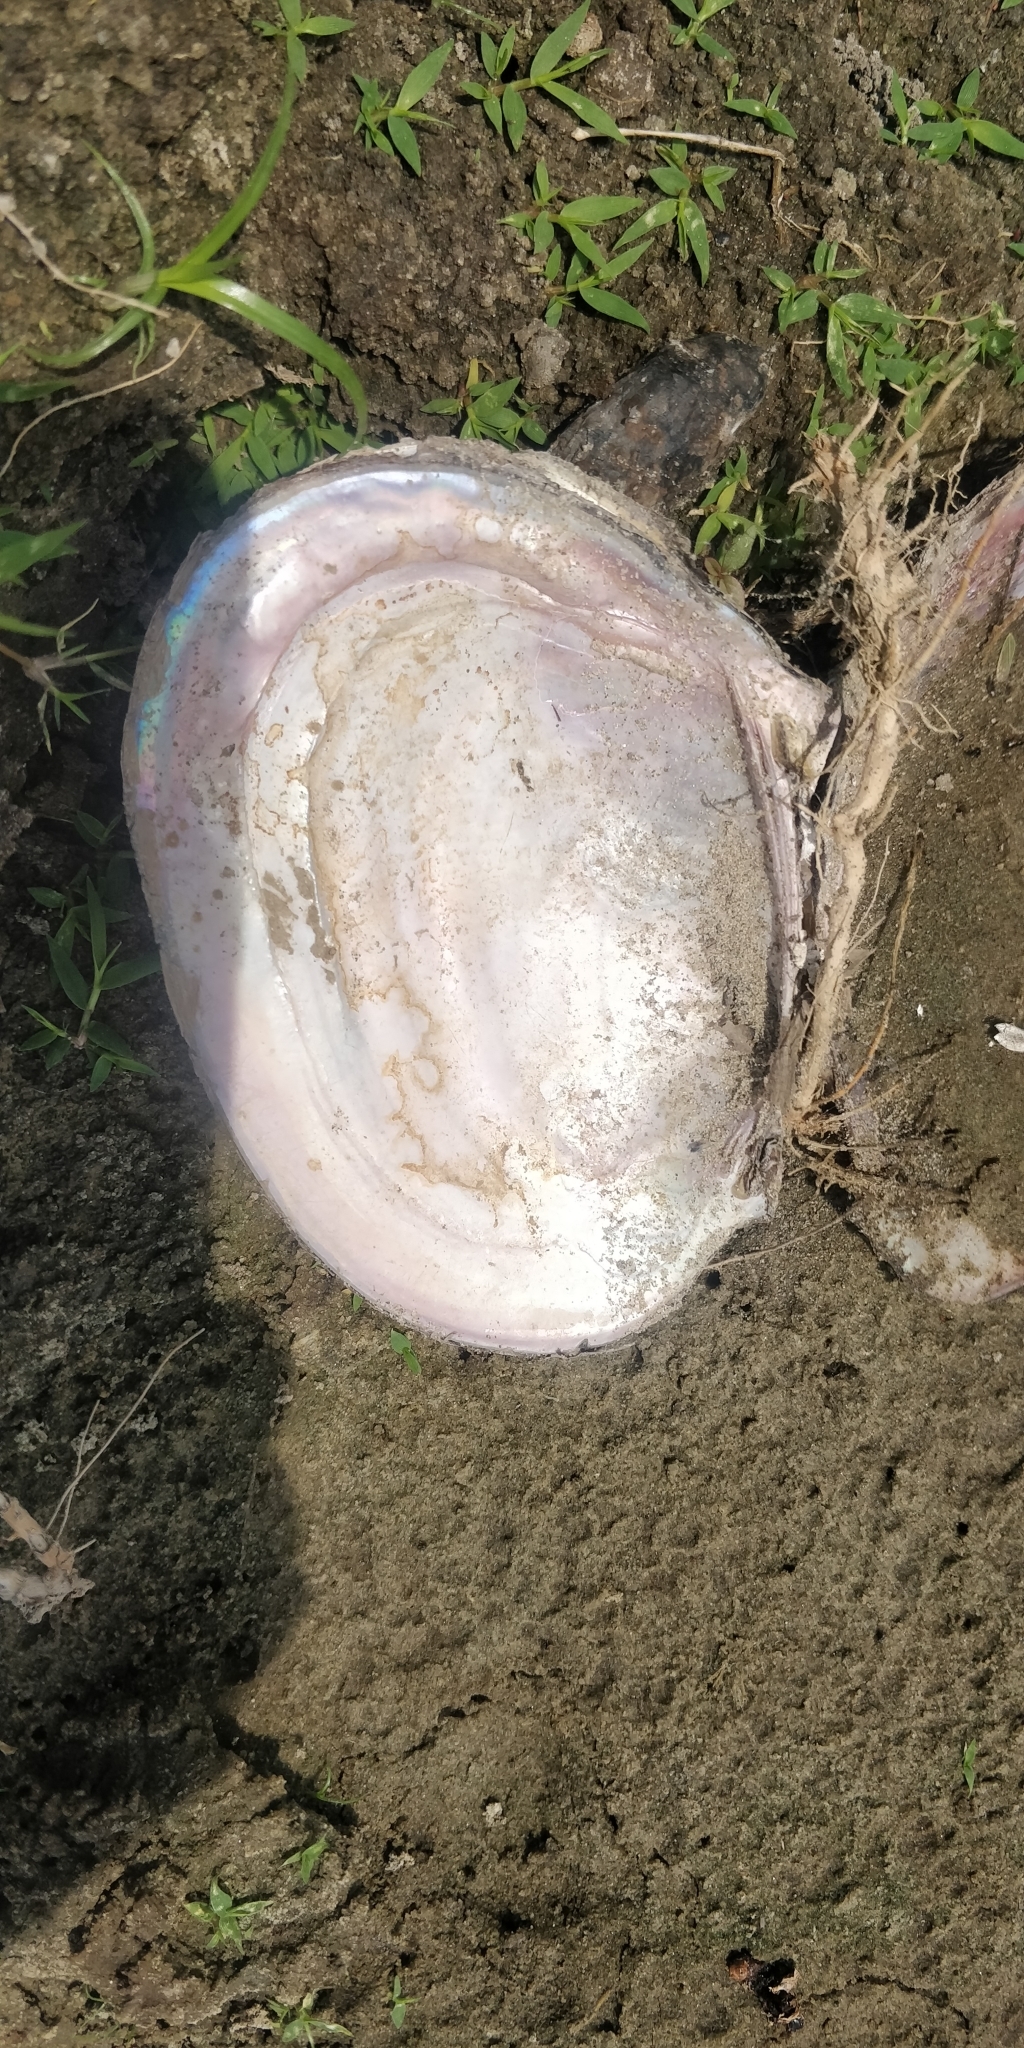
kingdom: Animalia
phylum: Mollusca
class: Bivalvia
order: Unionida
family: Unionidae
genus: Potamilus
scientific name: Potamilus ohiensis
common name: Pink papershell
